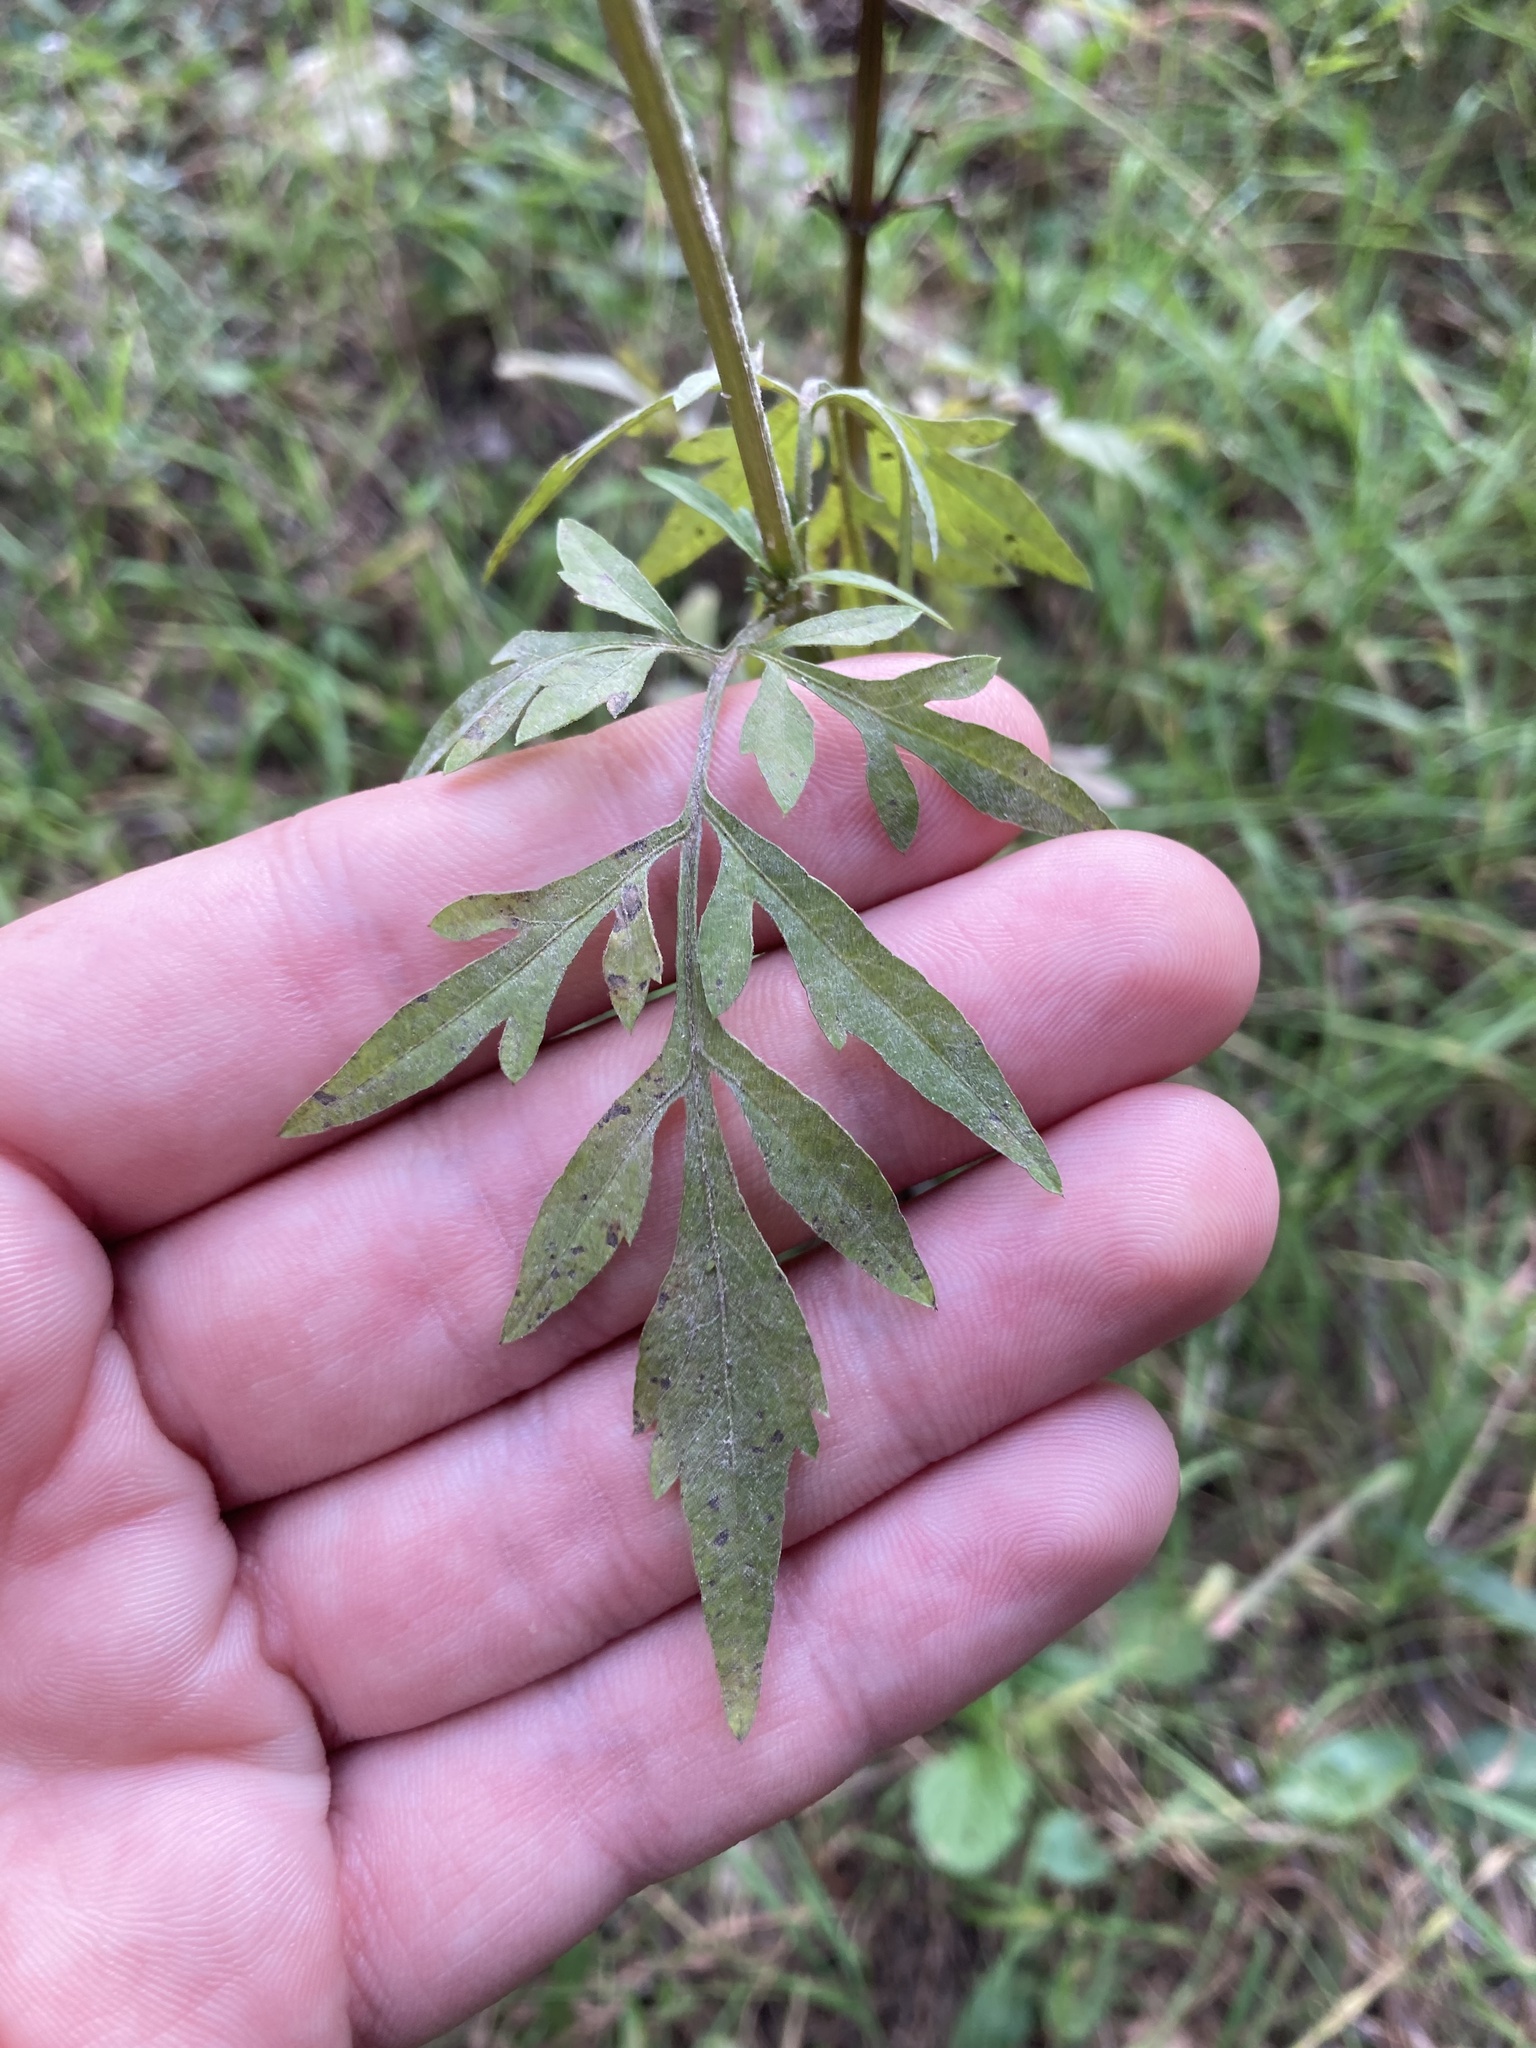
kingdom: Plantae
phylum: Tracheophyta
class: Magnoliopsida
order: Asterales
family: Asteraceae
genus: Bidens
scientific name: Bidens subalternans
